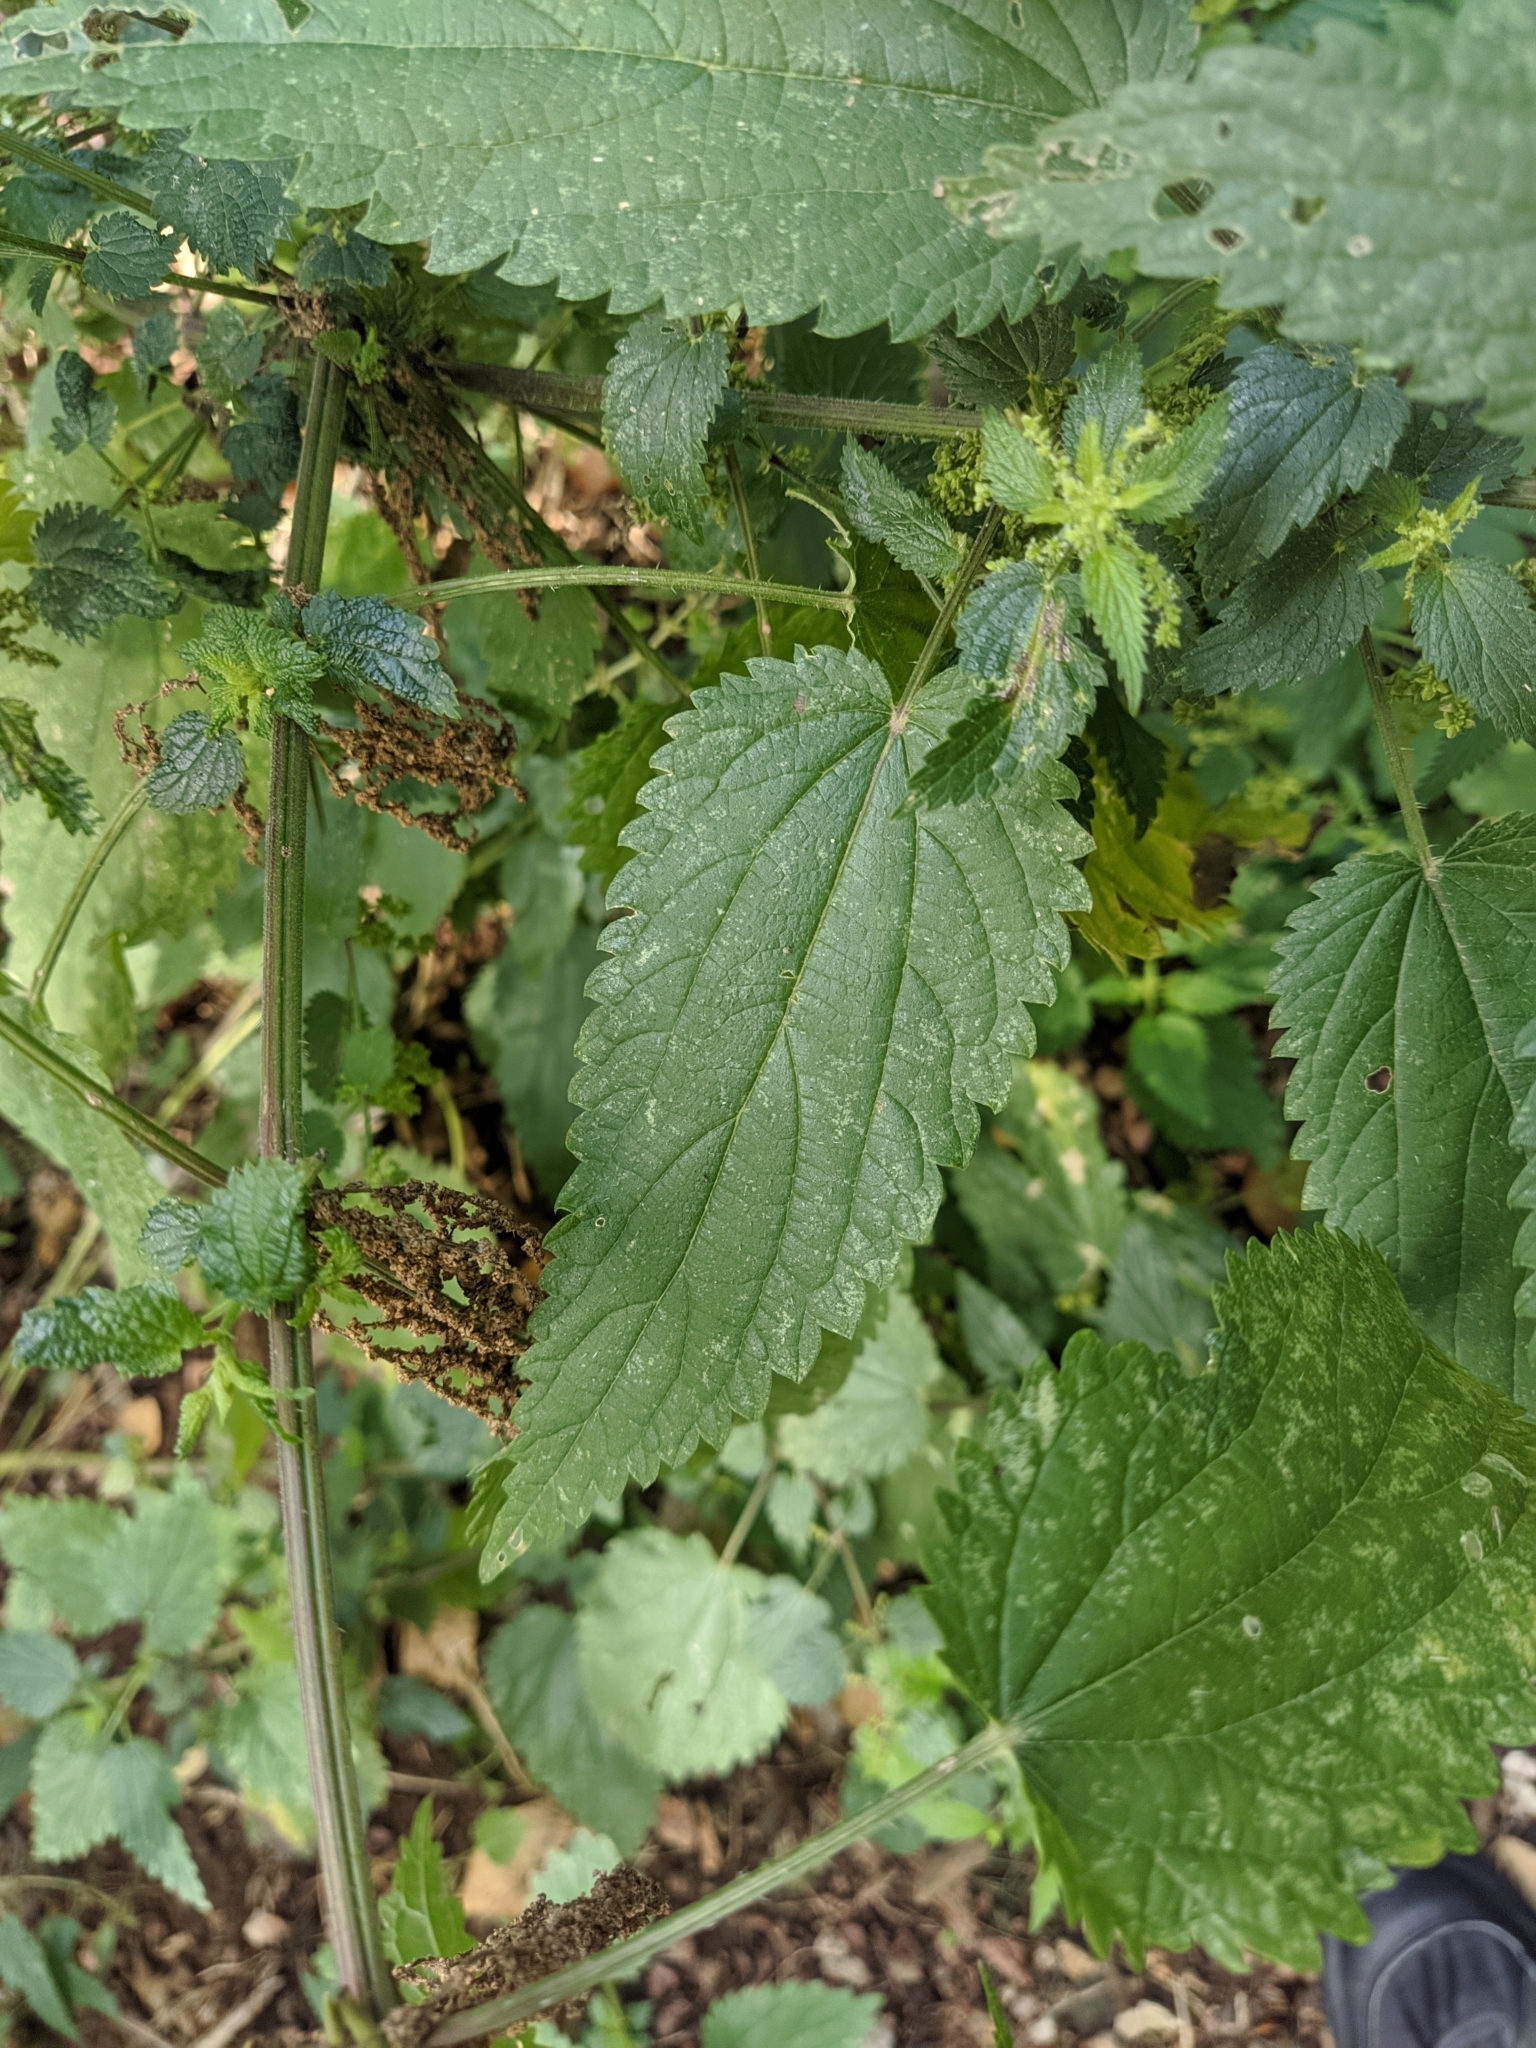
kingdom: Plantae
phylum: Tracheophyta
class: Magnoliopsida
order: Rosales
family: Urticaceae
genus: Urtica
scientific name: Urtica dioica
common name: Common nettle
